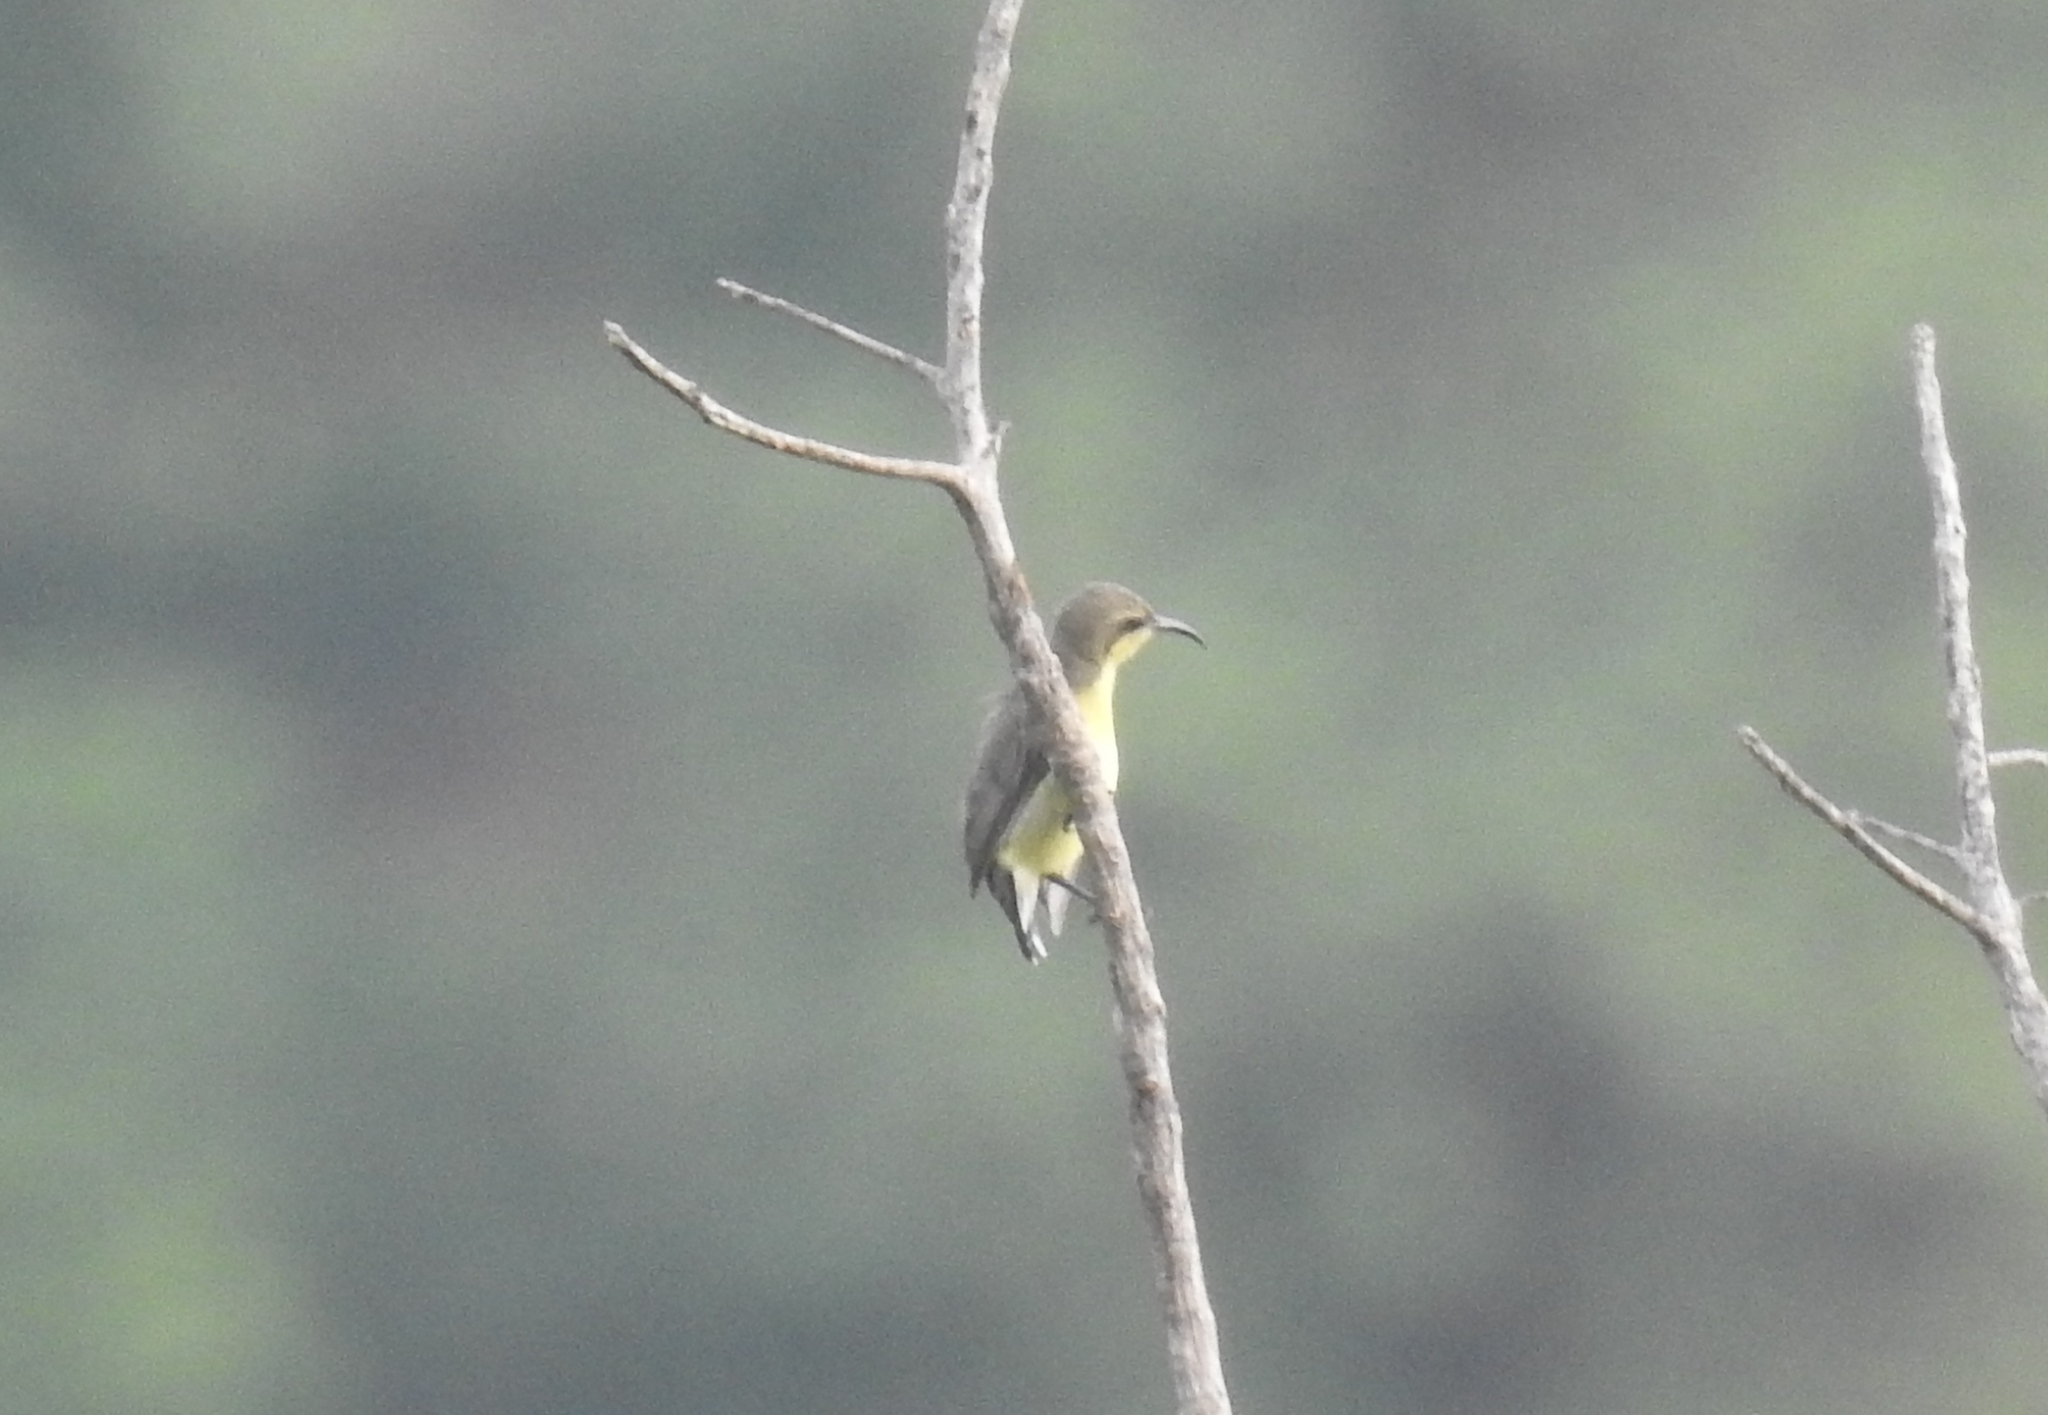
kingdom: Animalia
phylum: Chordata
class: Aves
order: Passeriformes
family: Nectariniidae
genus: Cinnyris
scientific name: Cinnyris asiaticus
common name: Purple sunbird
